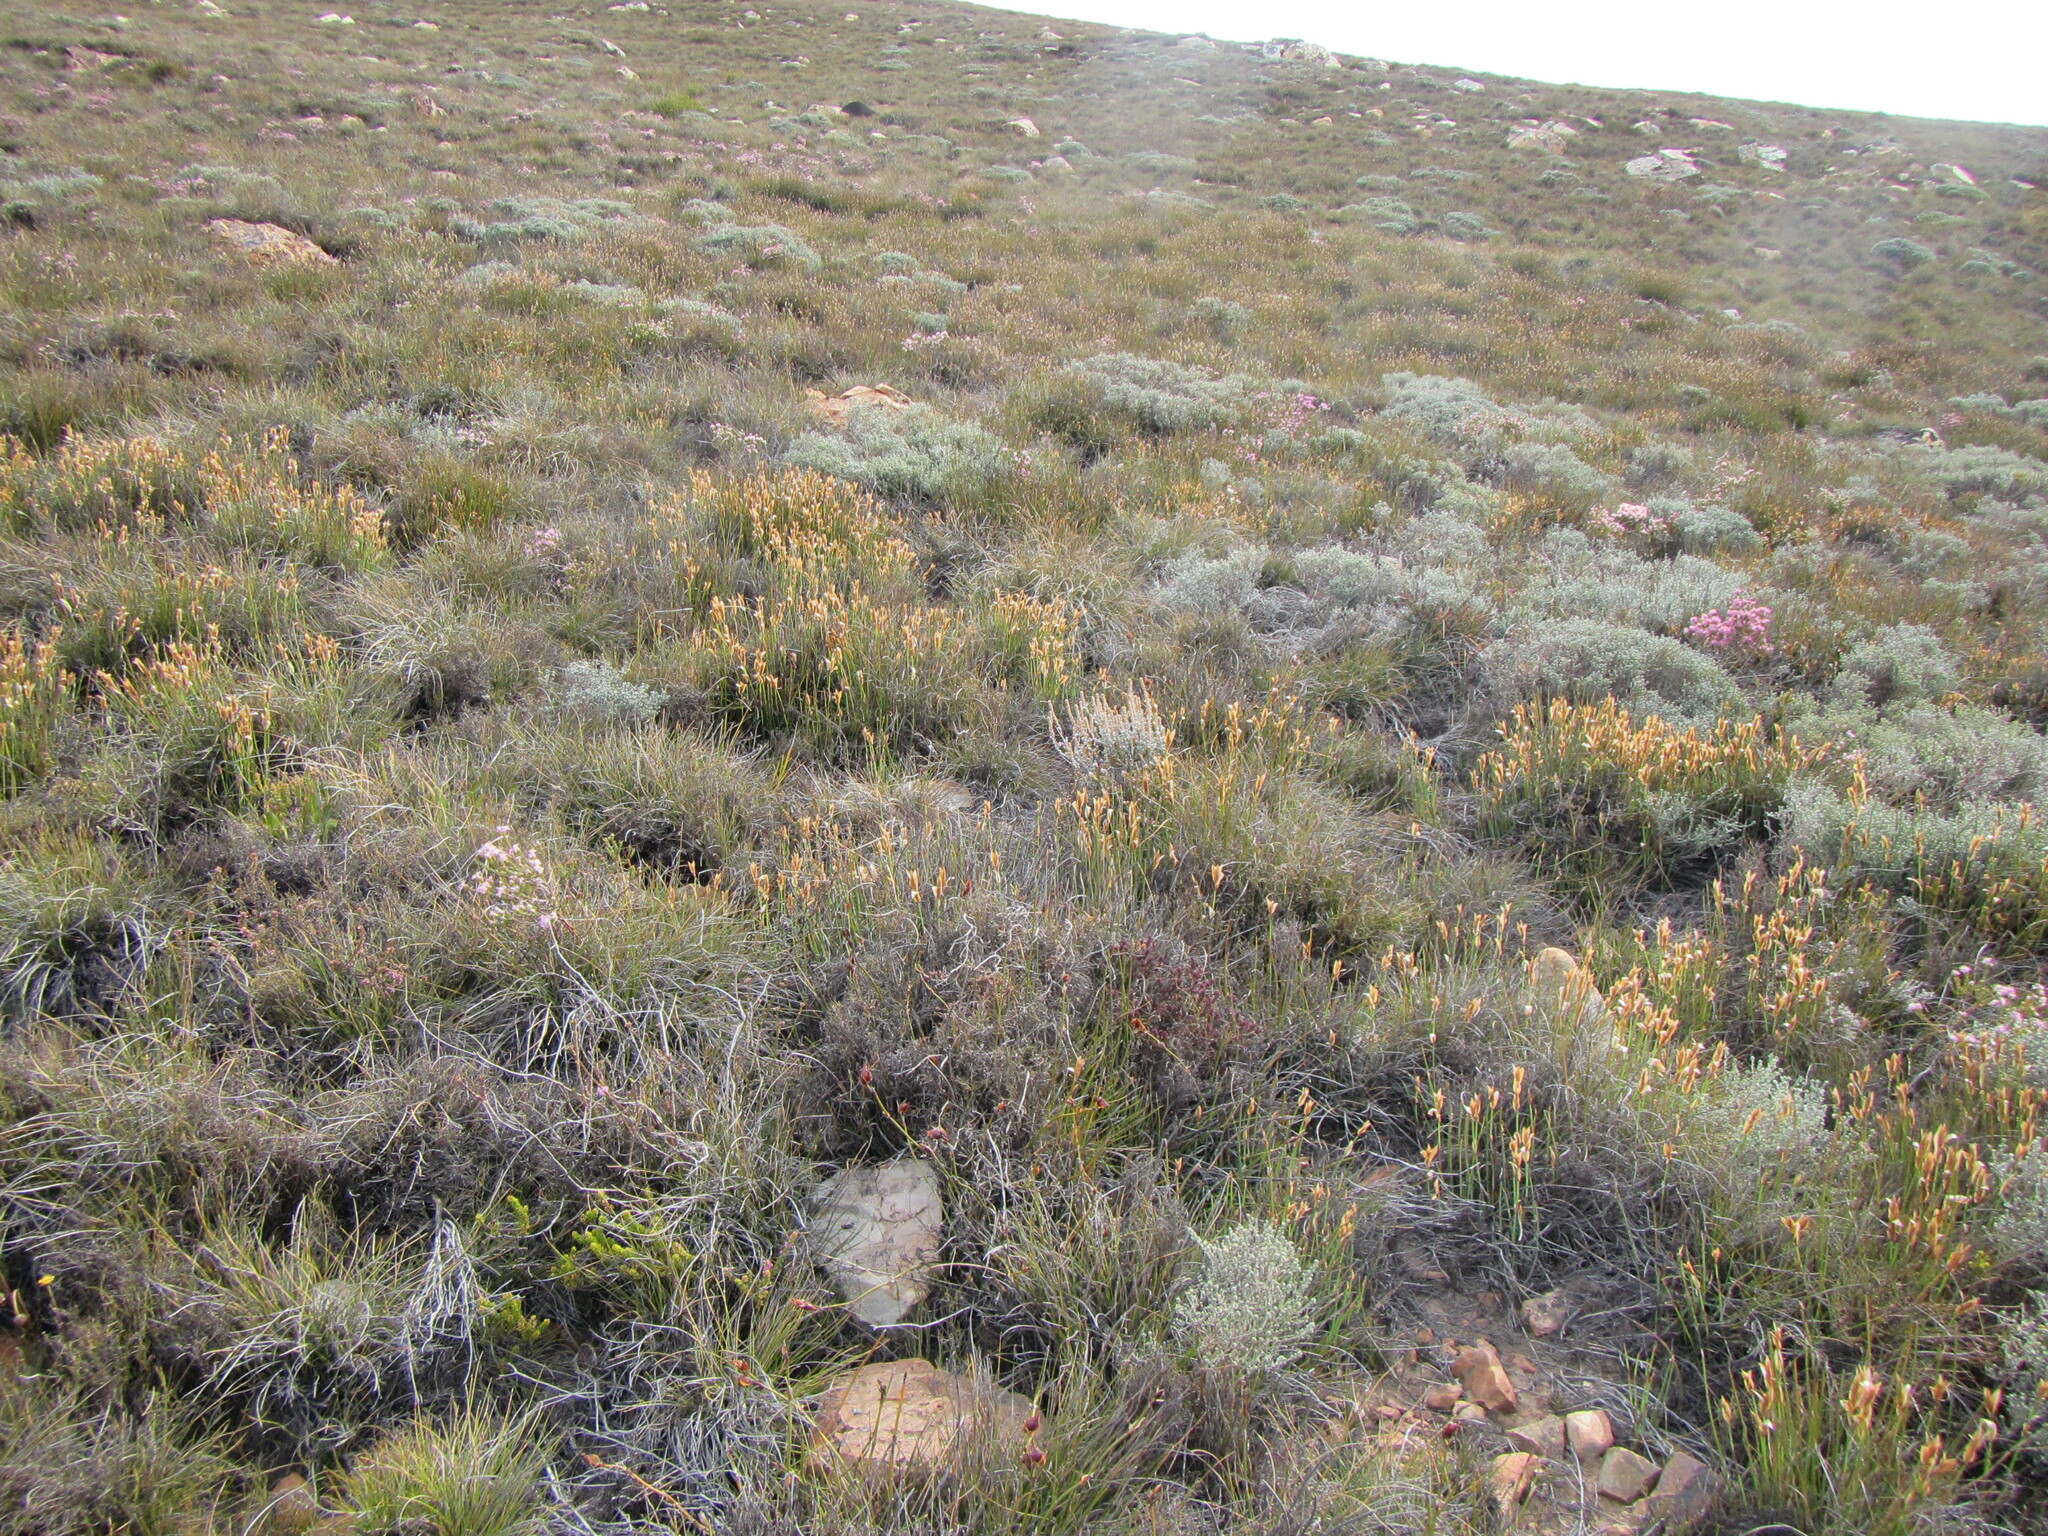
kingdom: Plantae
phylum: Tracheophyta
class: Liliopsida
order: Poales
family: Restionaceae
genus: Elegia
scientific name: Elegia esterhuyseniae
